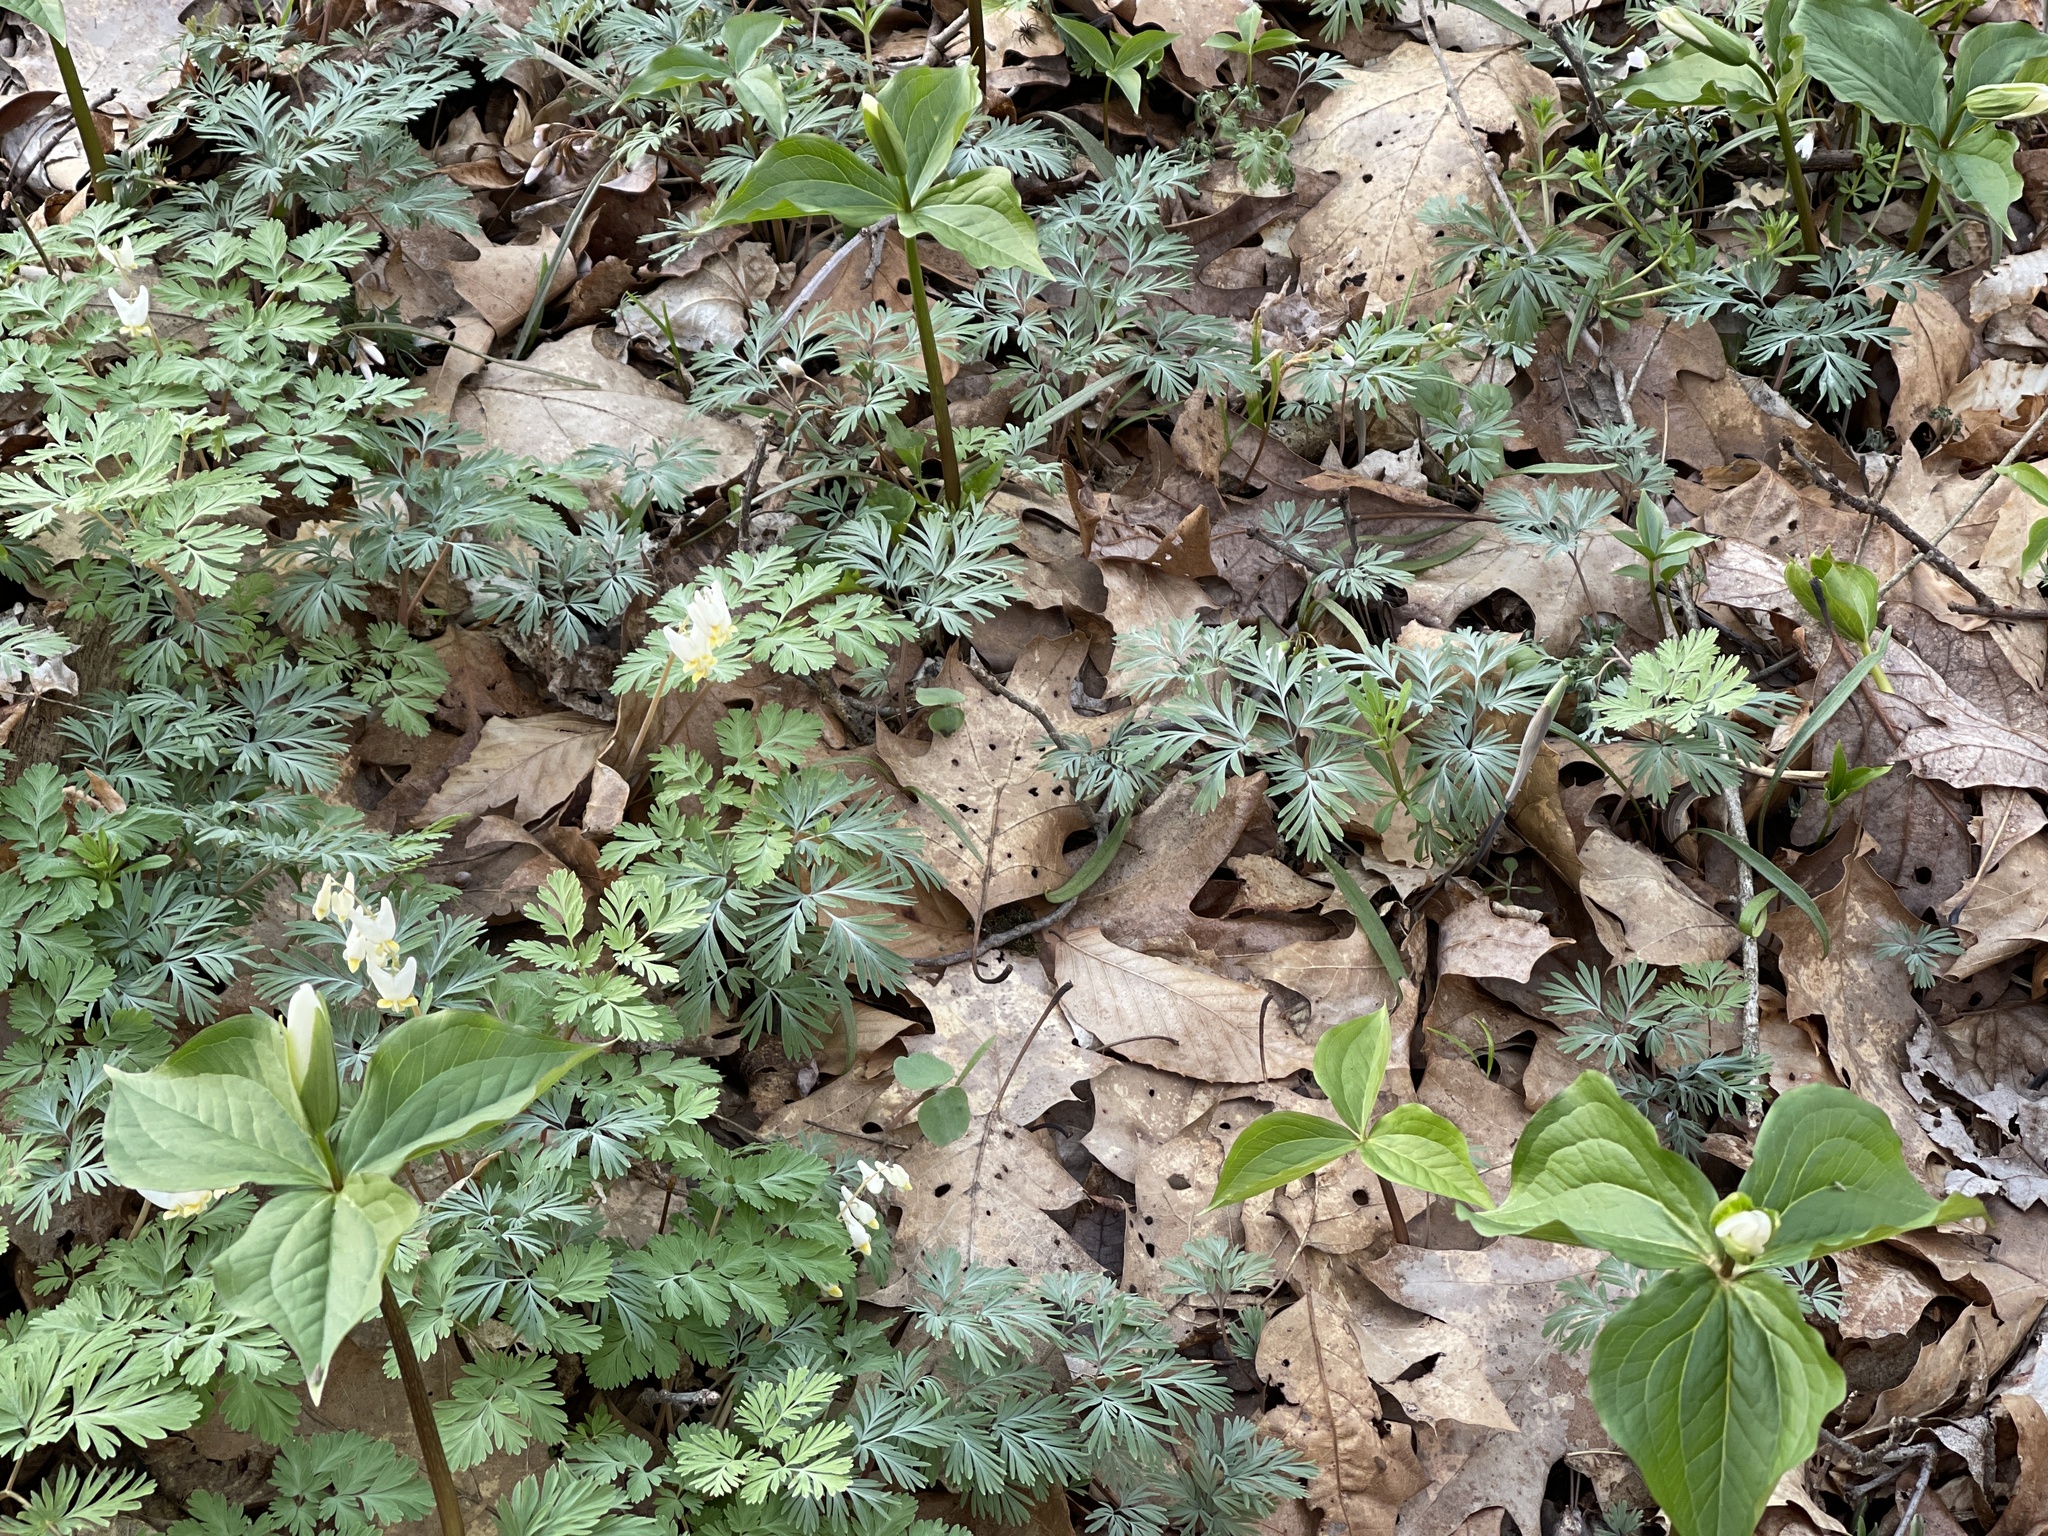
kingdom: Plantae
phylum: Tracheophyta
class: Liliopsida
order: Liliales
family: Melanthiaceae
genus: Trillium
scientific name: Trillium grandiflorum
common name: Great white trillium
